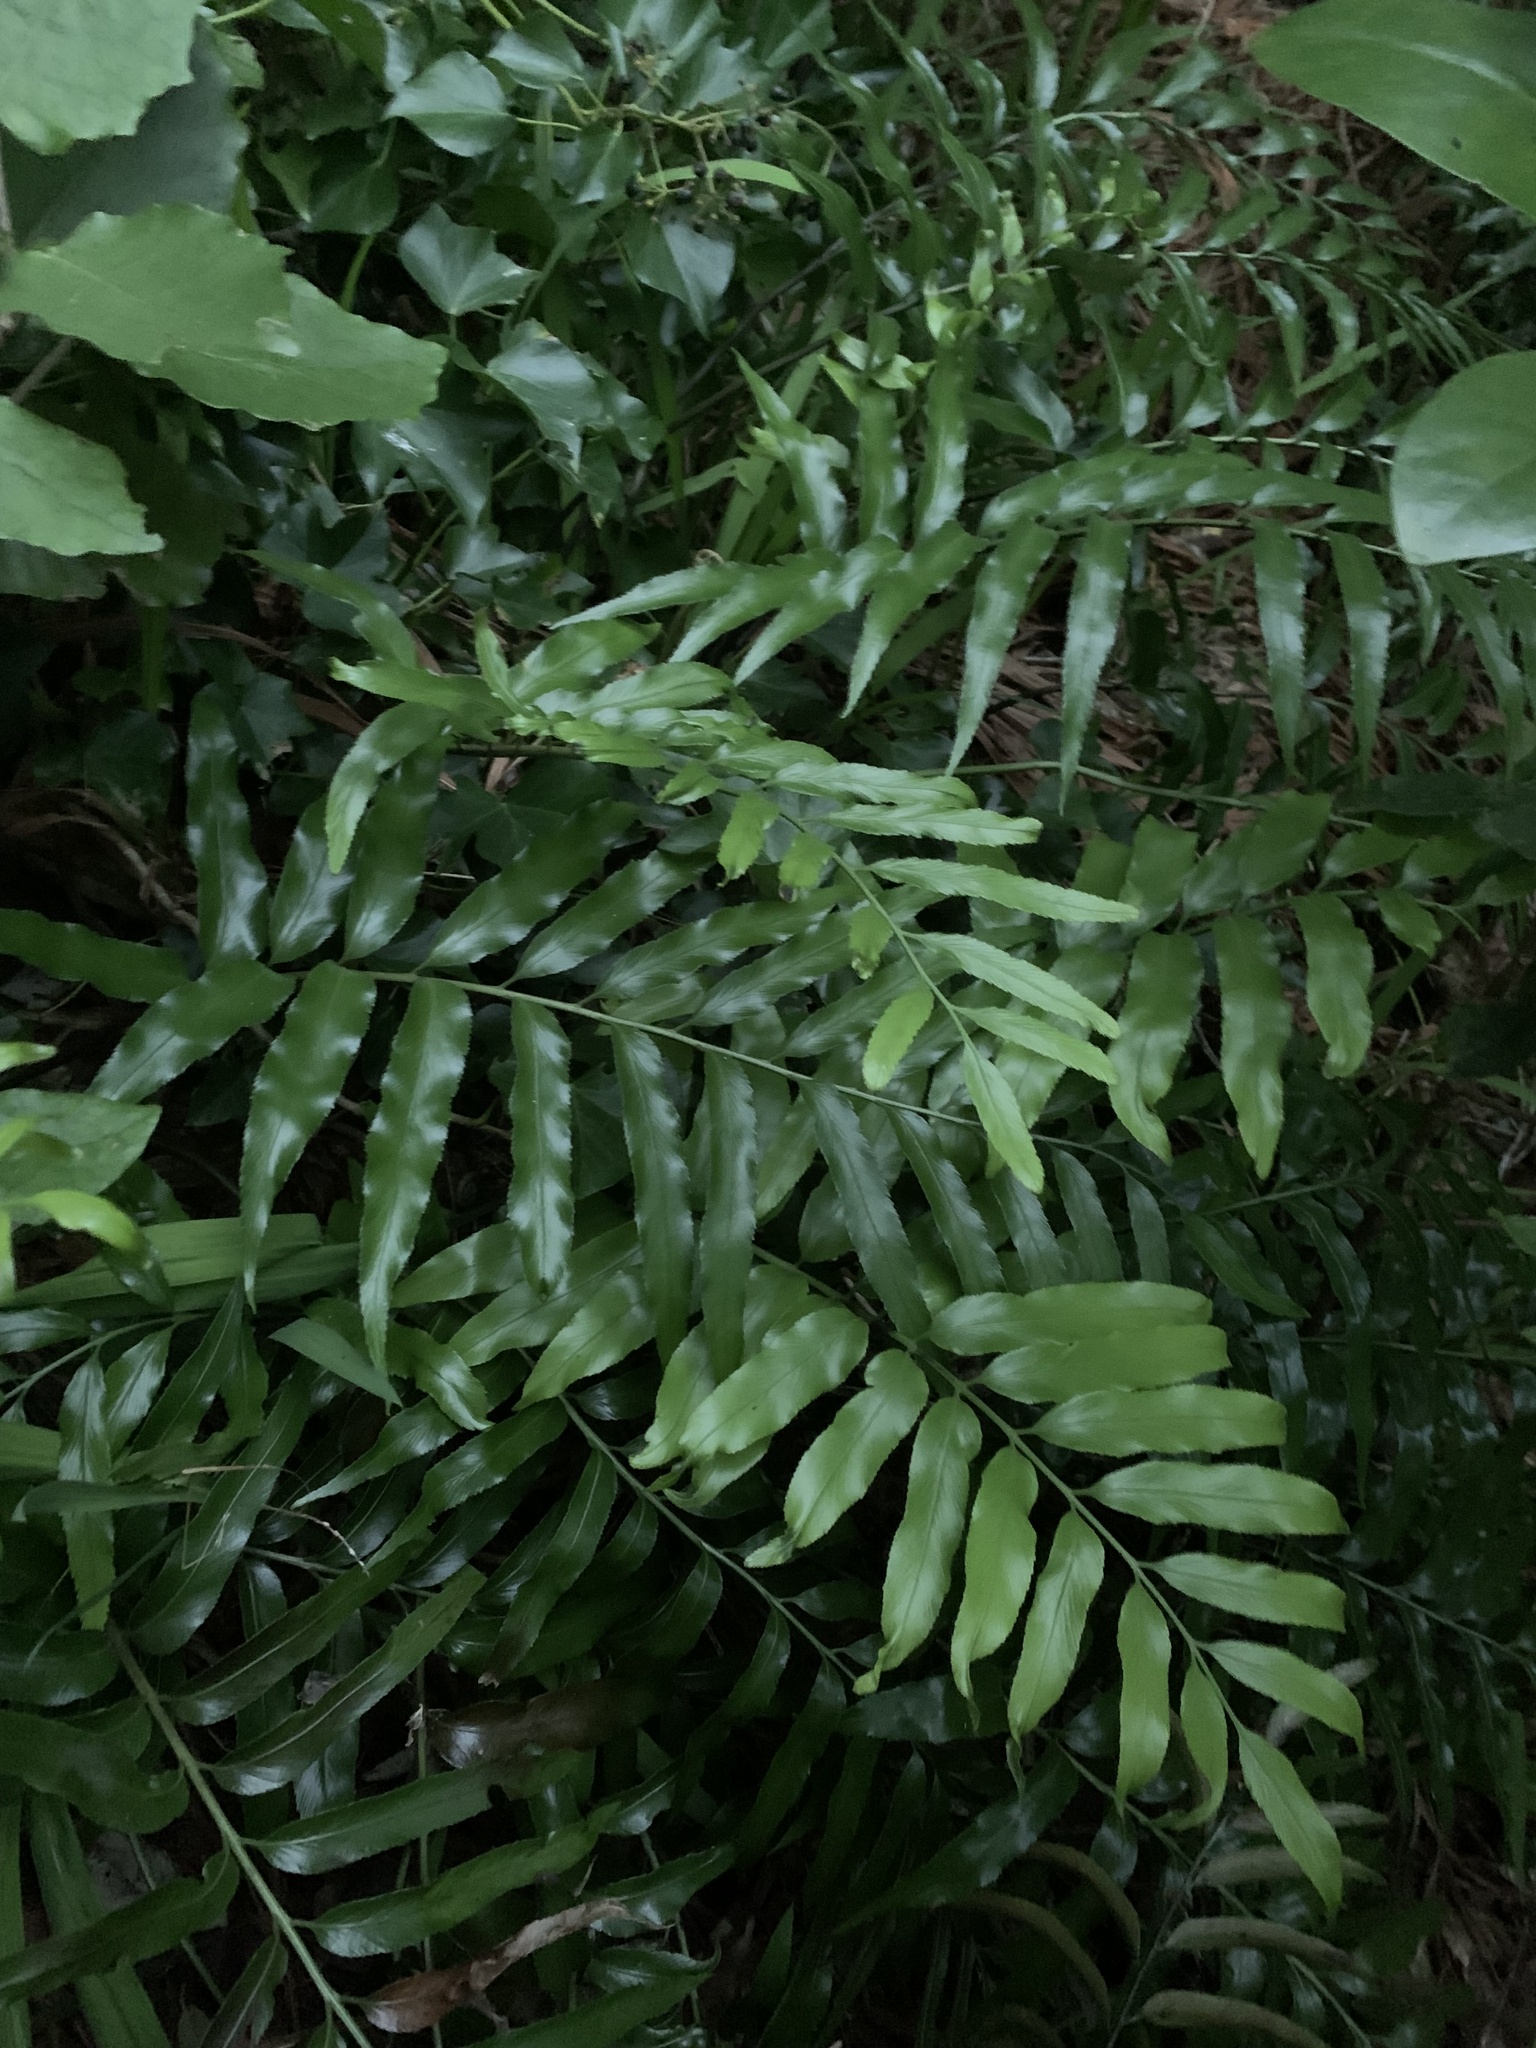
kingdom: Plantae
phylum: Tracheophyta
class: Polypodiopsida
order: Polypodiales
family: Aspleniaceae
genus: Asplenium
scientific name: Asplenium oblongifolium
